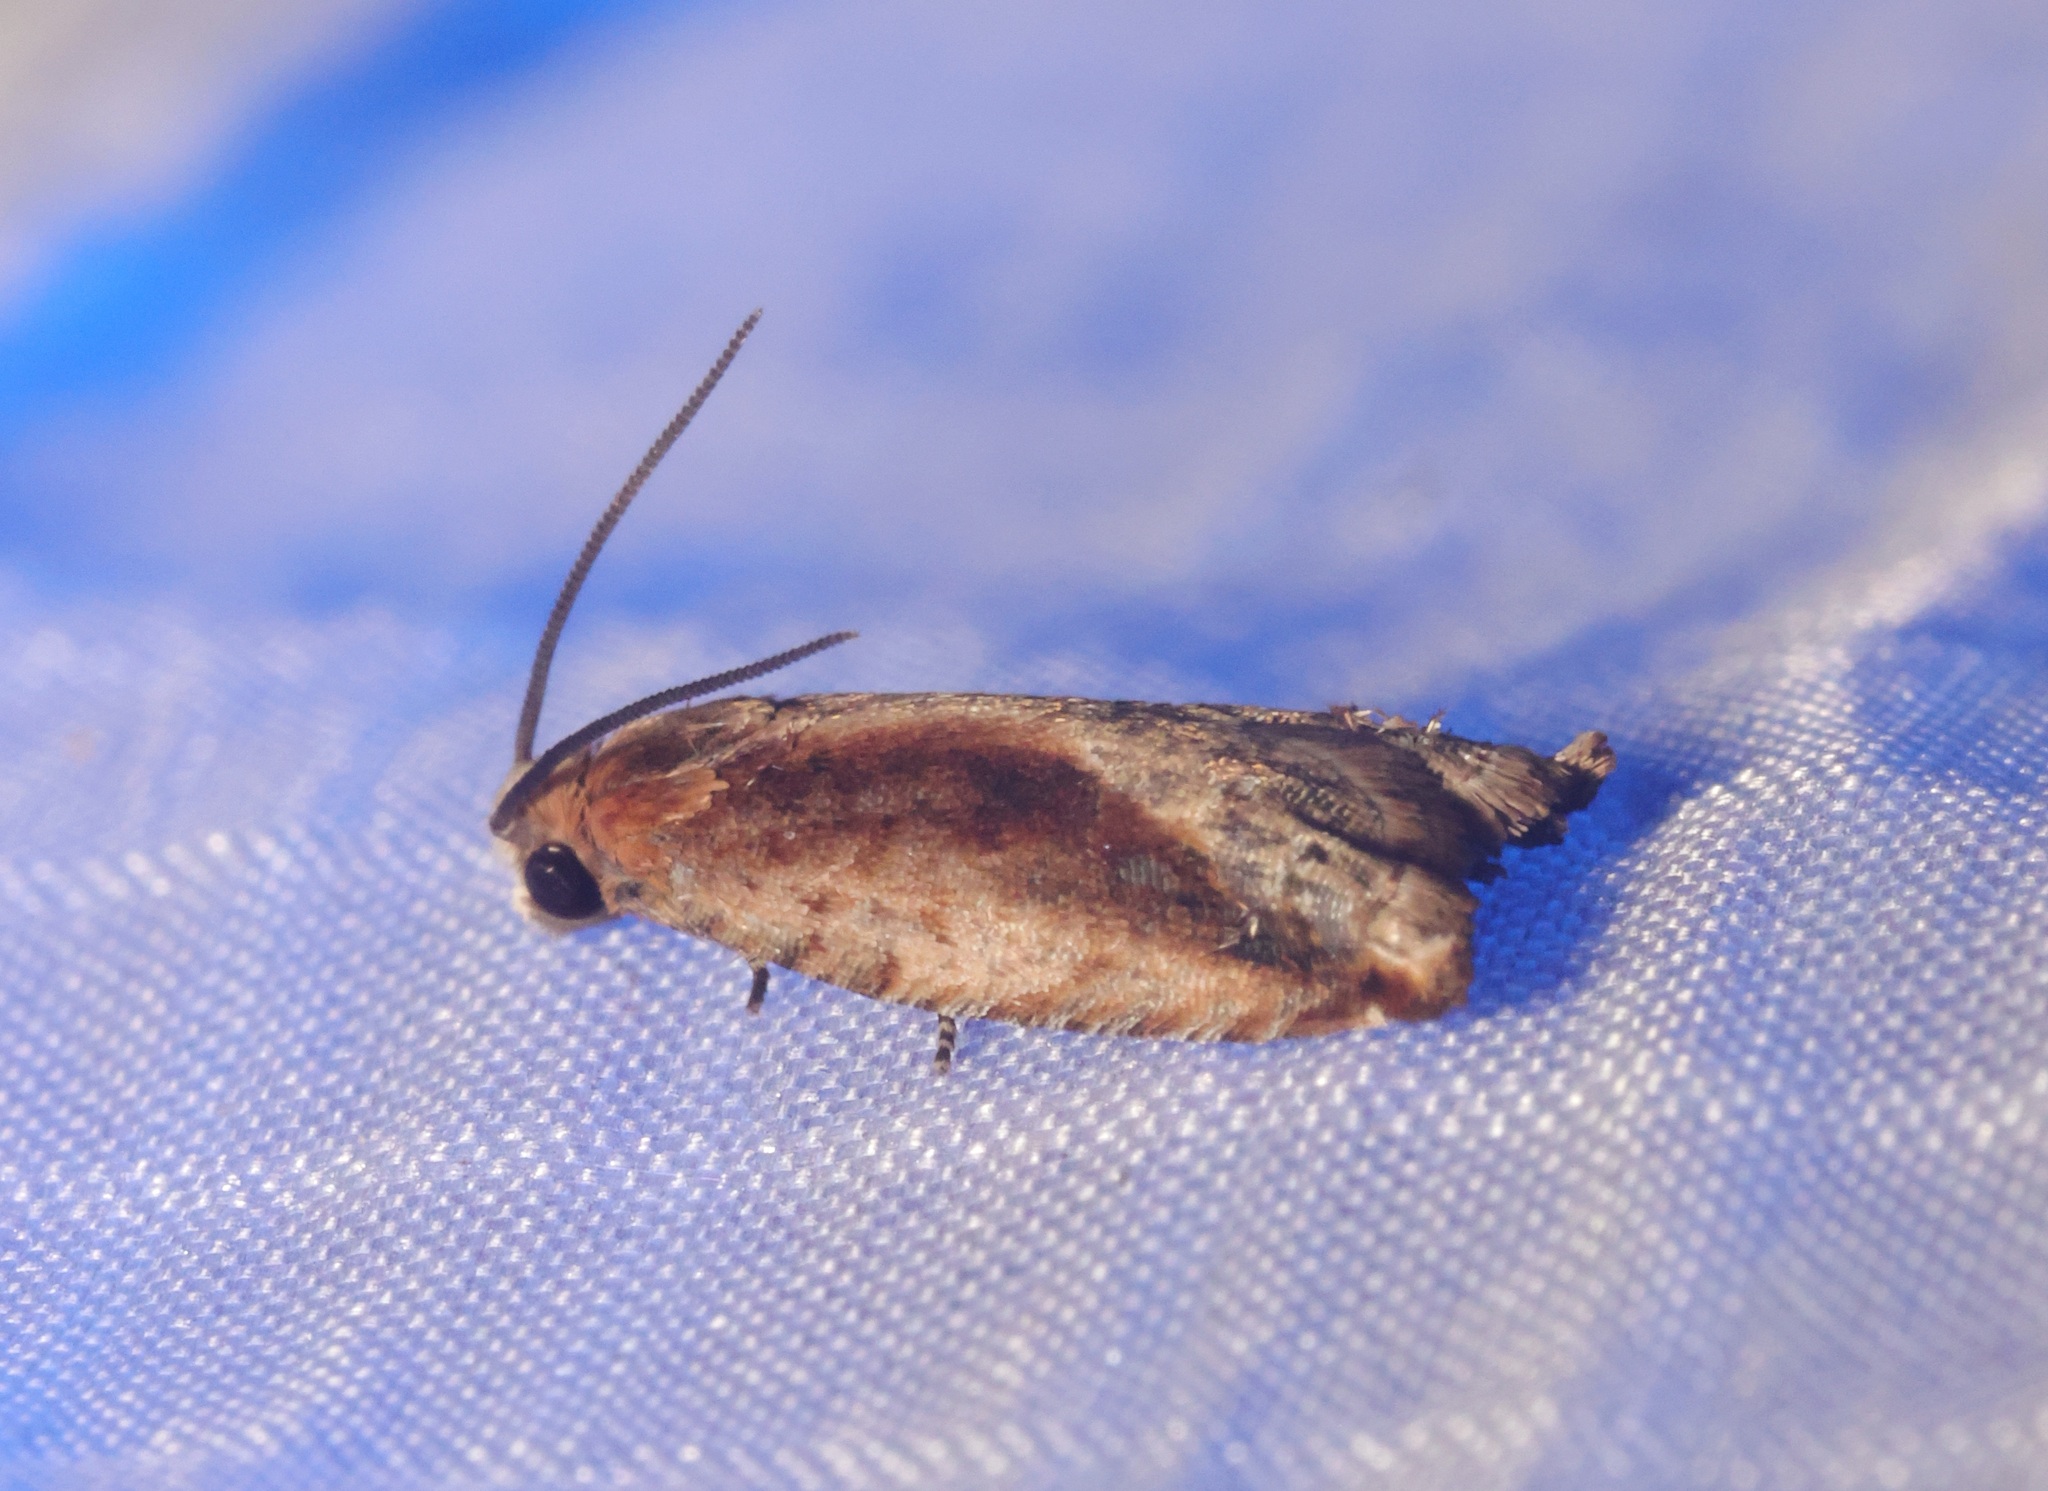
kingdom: Animalia
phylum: Arthropoda
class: Insecta
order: Lepidoptera
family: Tortricidae
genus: Spilonota
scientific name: Spilonota mortuana
